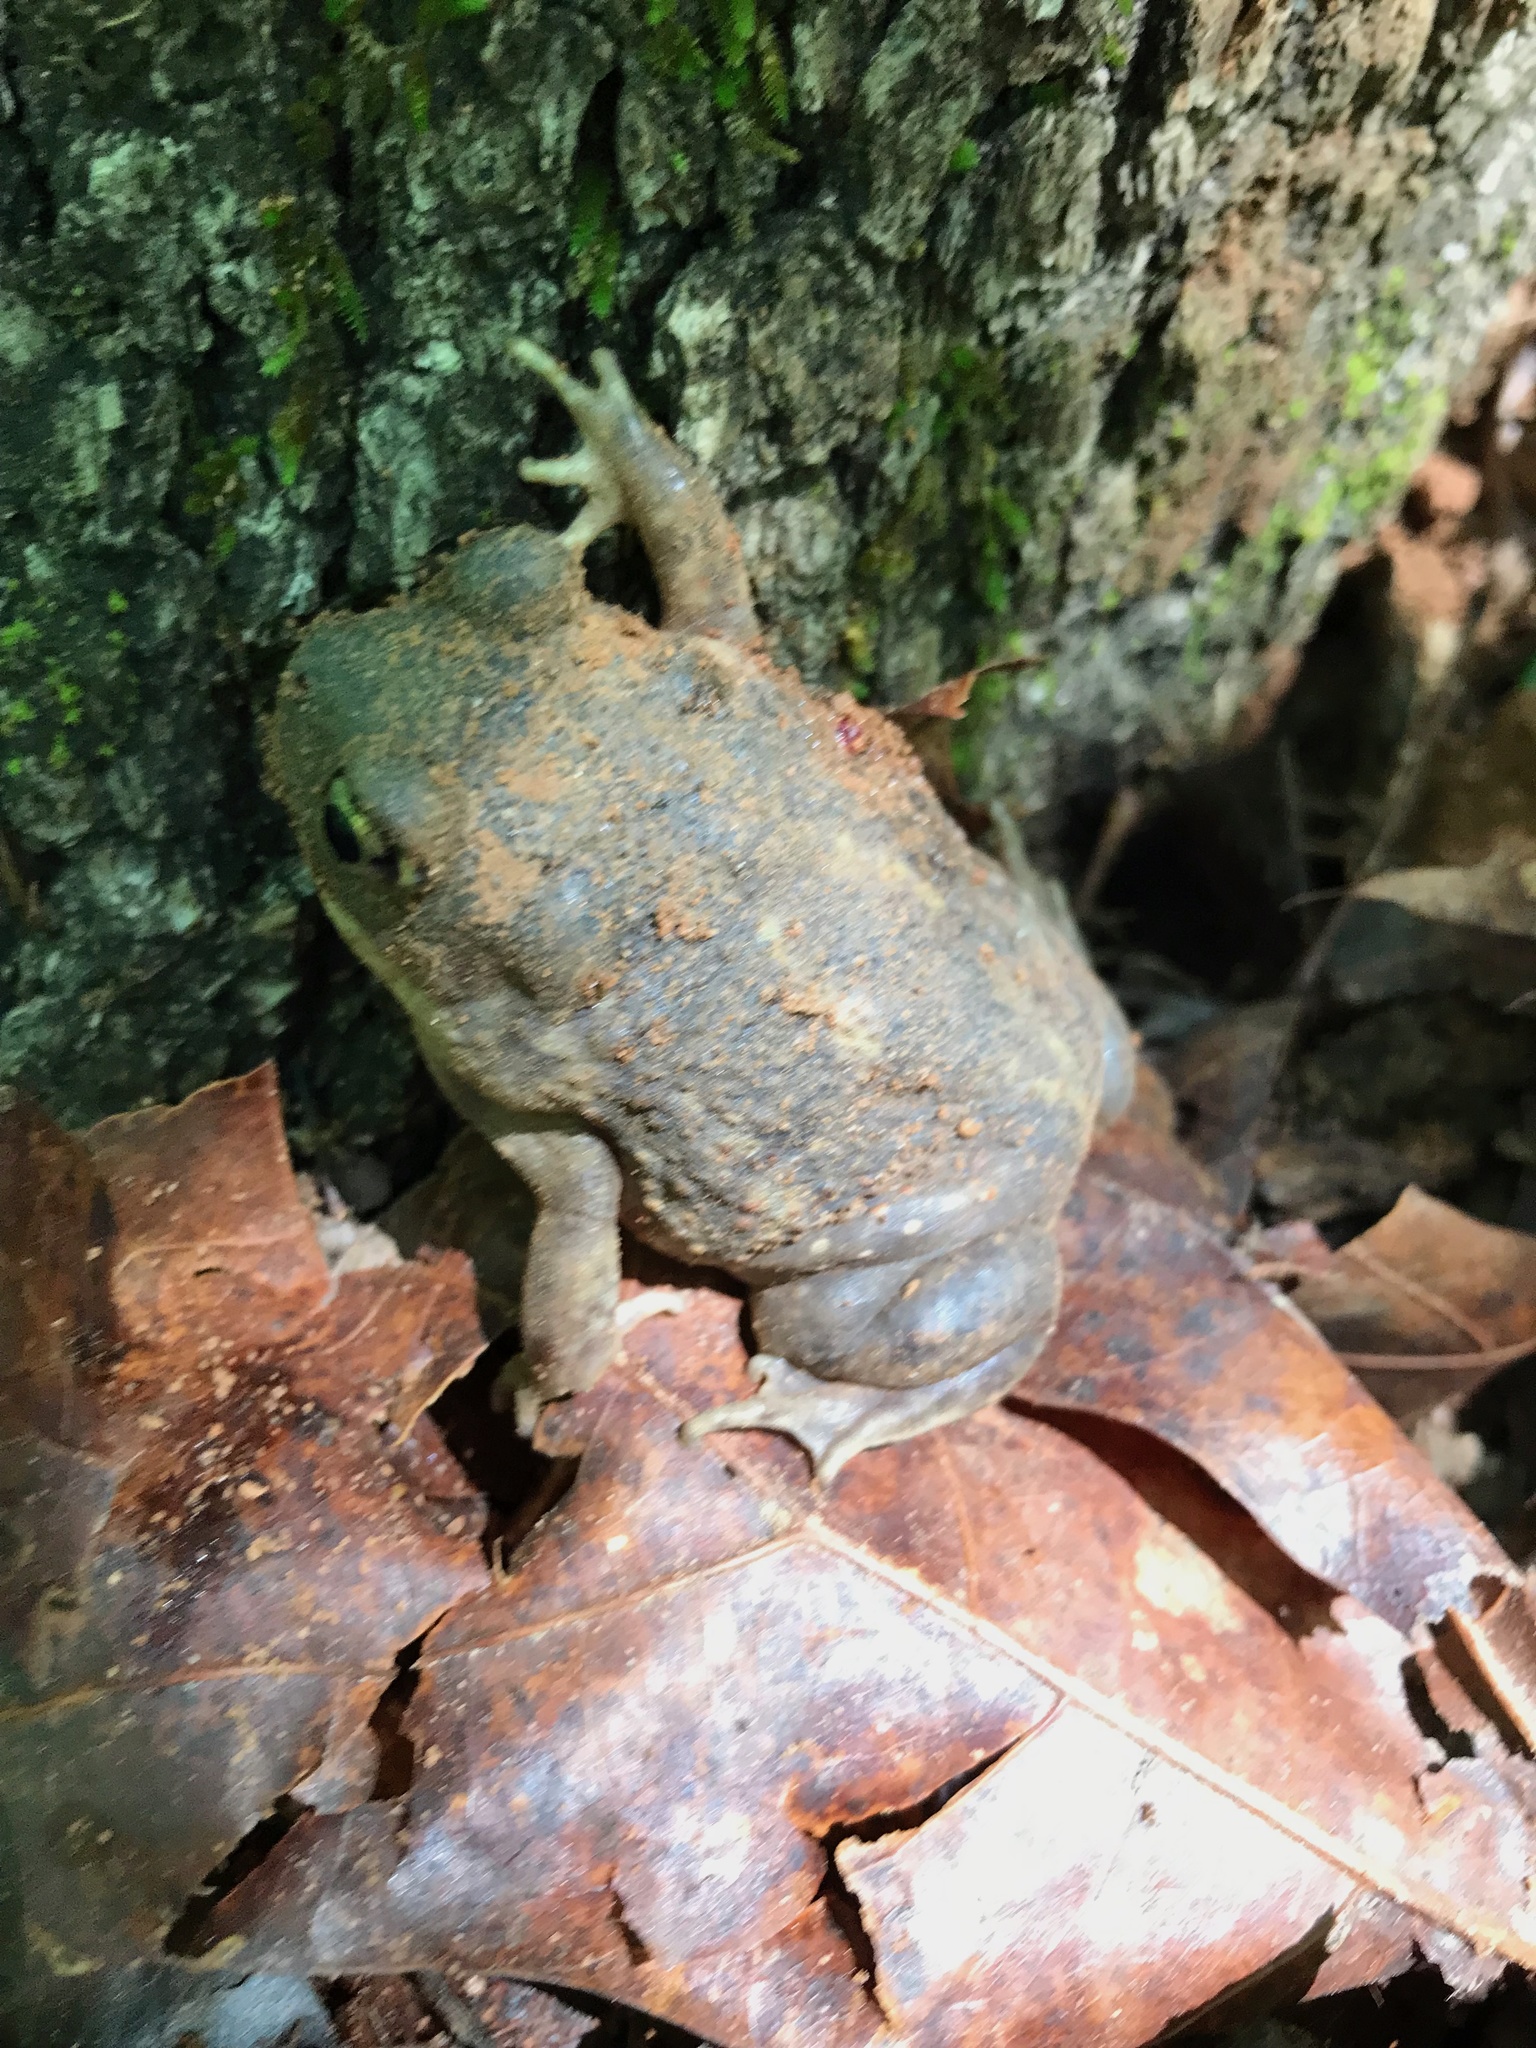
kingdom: Animalia
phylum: Chordata
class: Amphibia
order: Anura
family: Scaphiopodidae
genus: Scaphiopus
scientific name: Scaphiopus holbrookii
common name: Eastern spadefoot toad
